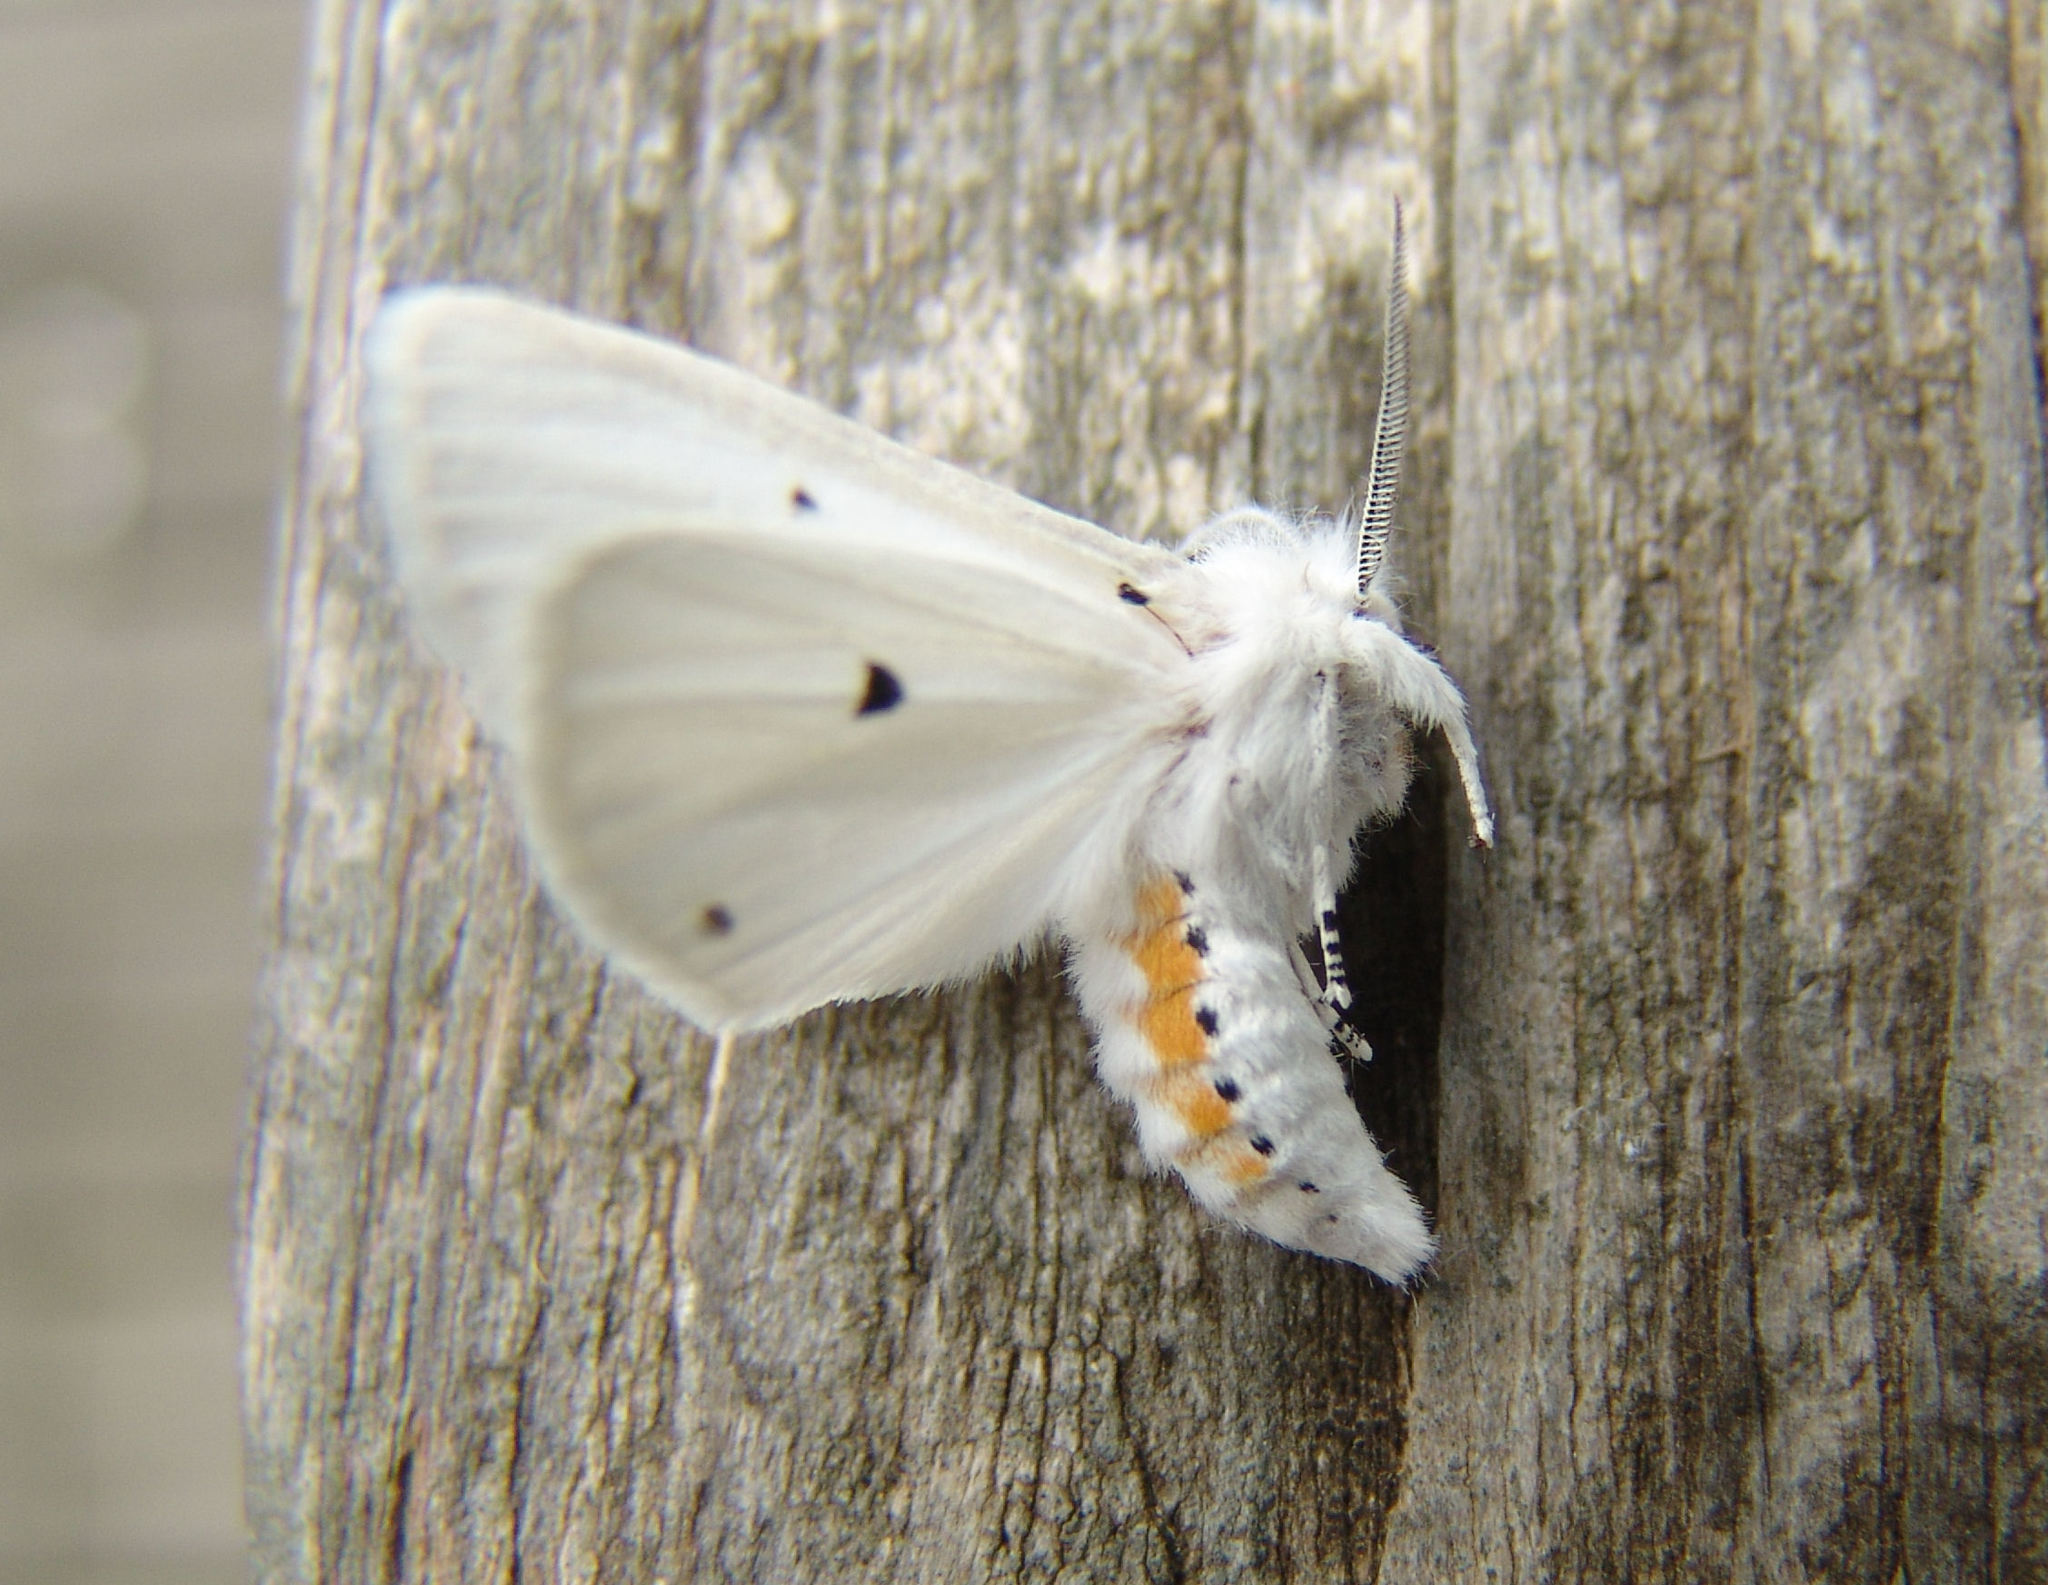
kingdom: Animalia
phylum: Arthropoda
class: Insecta
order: Lepidoptera
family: Erebidae
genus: Spilosoma
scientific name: Spilosoma virginica
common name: Virginia tiger moth
